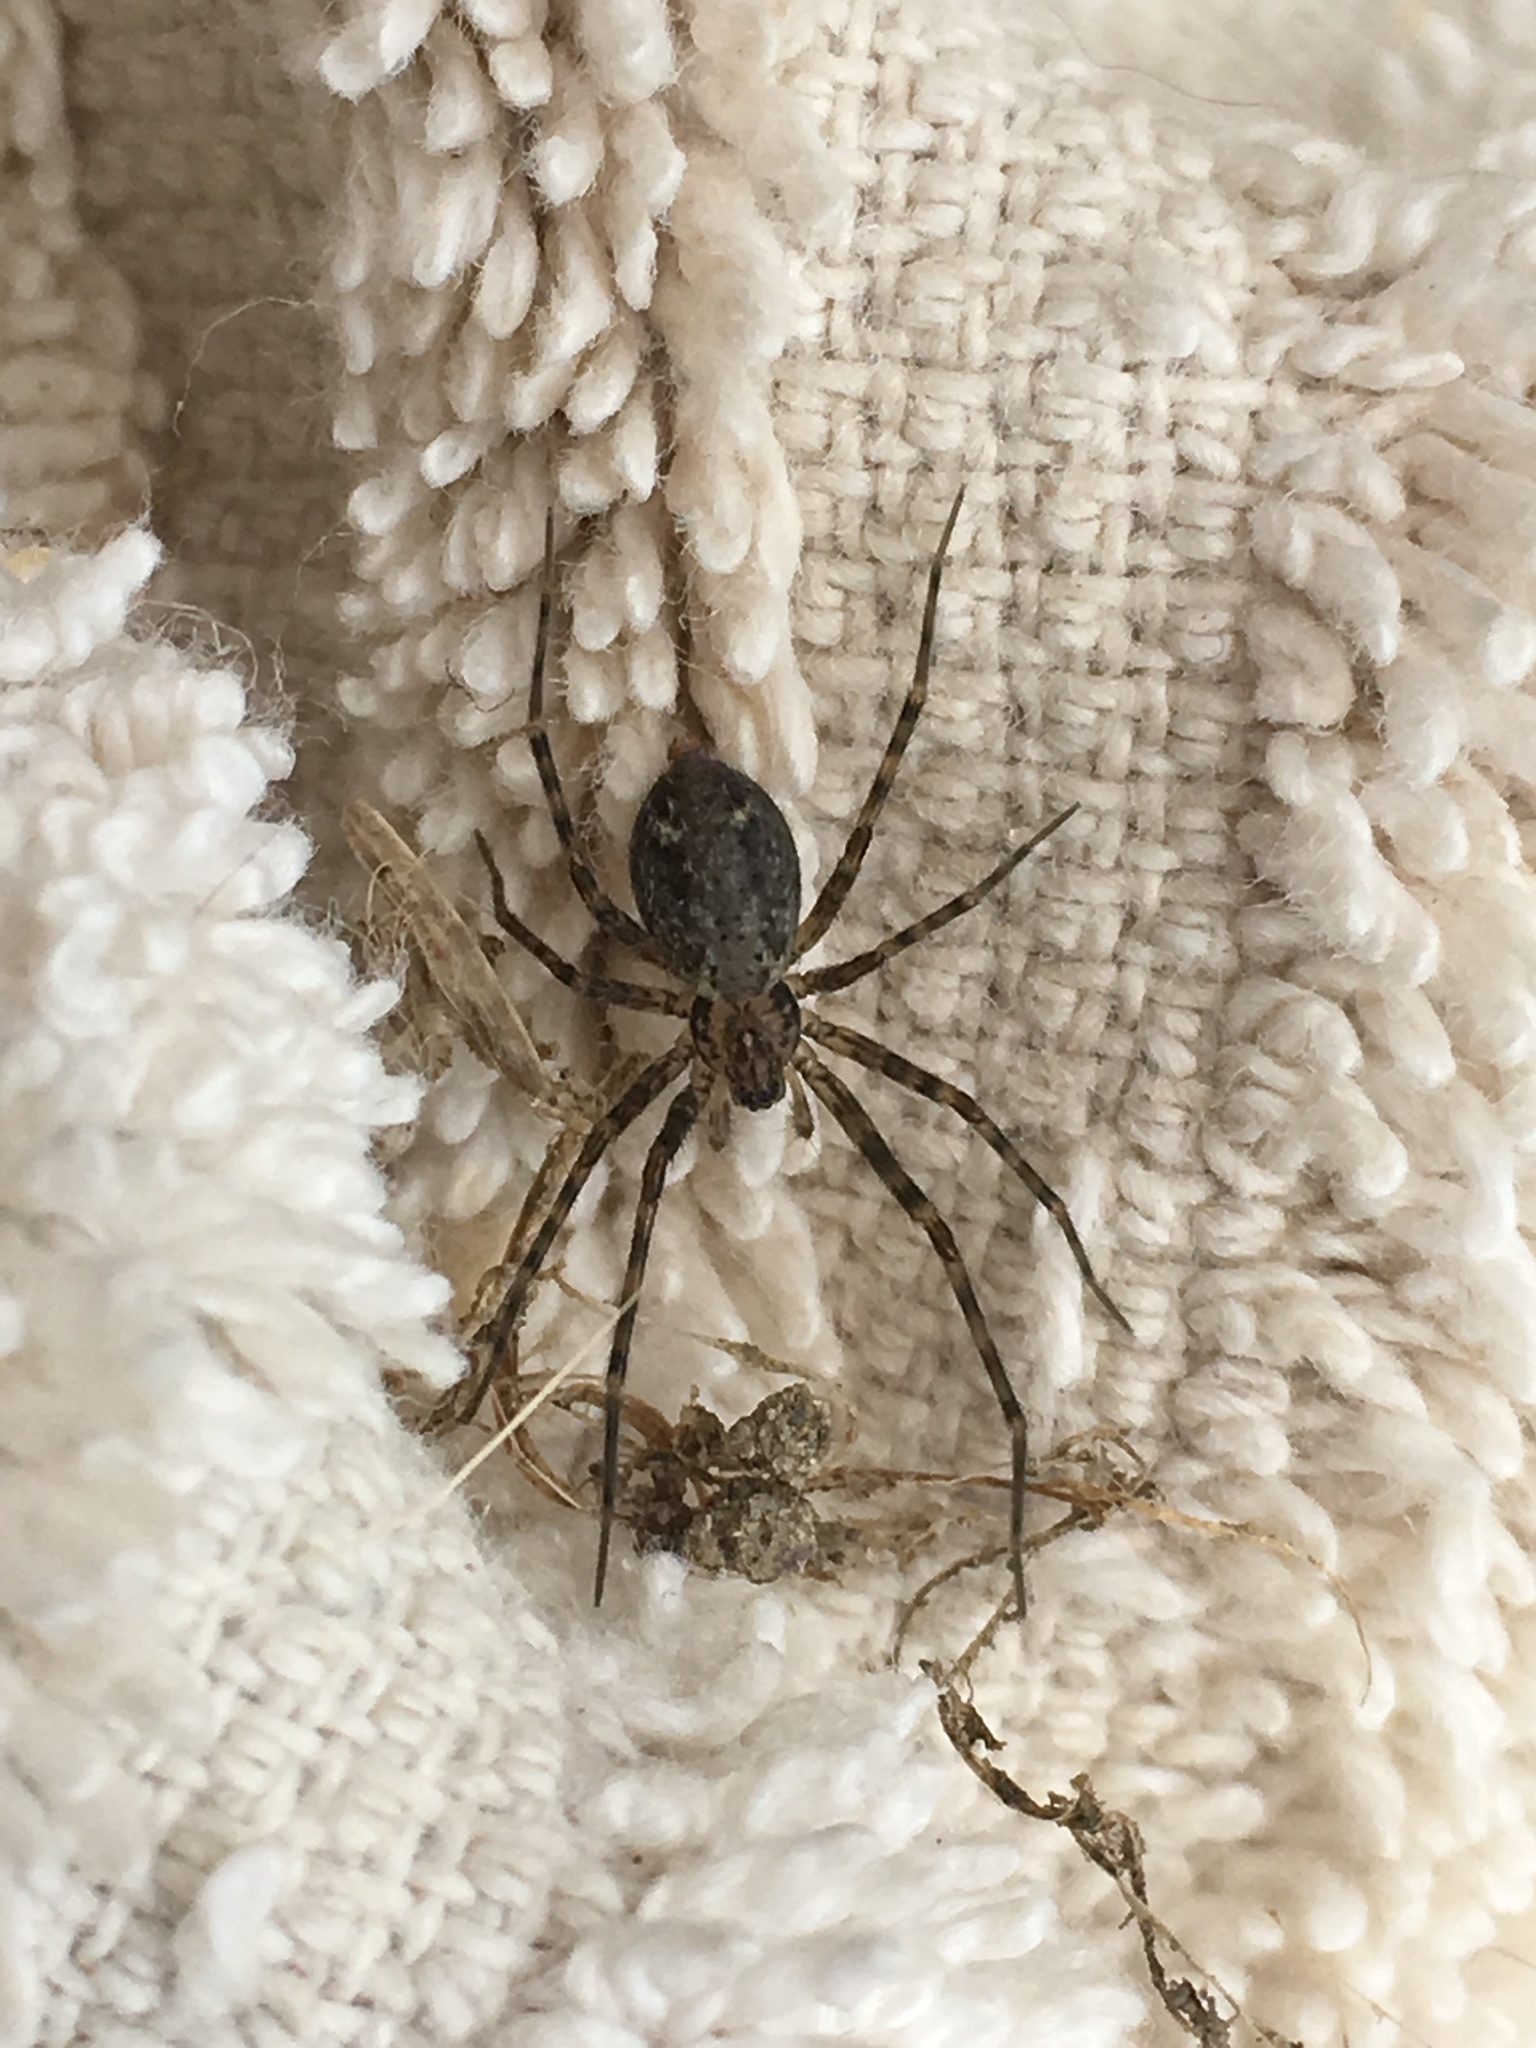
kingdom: Animalia
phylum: Arthropoda
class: Arachnida
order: Araneae
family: Stiphidiidae
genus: Stiphidion
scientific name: Stiphidion facetum
